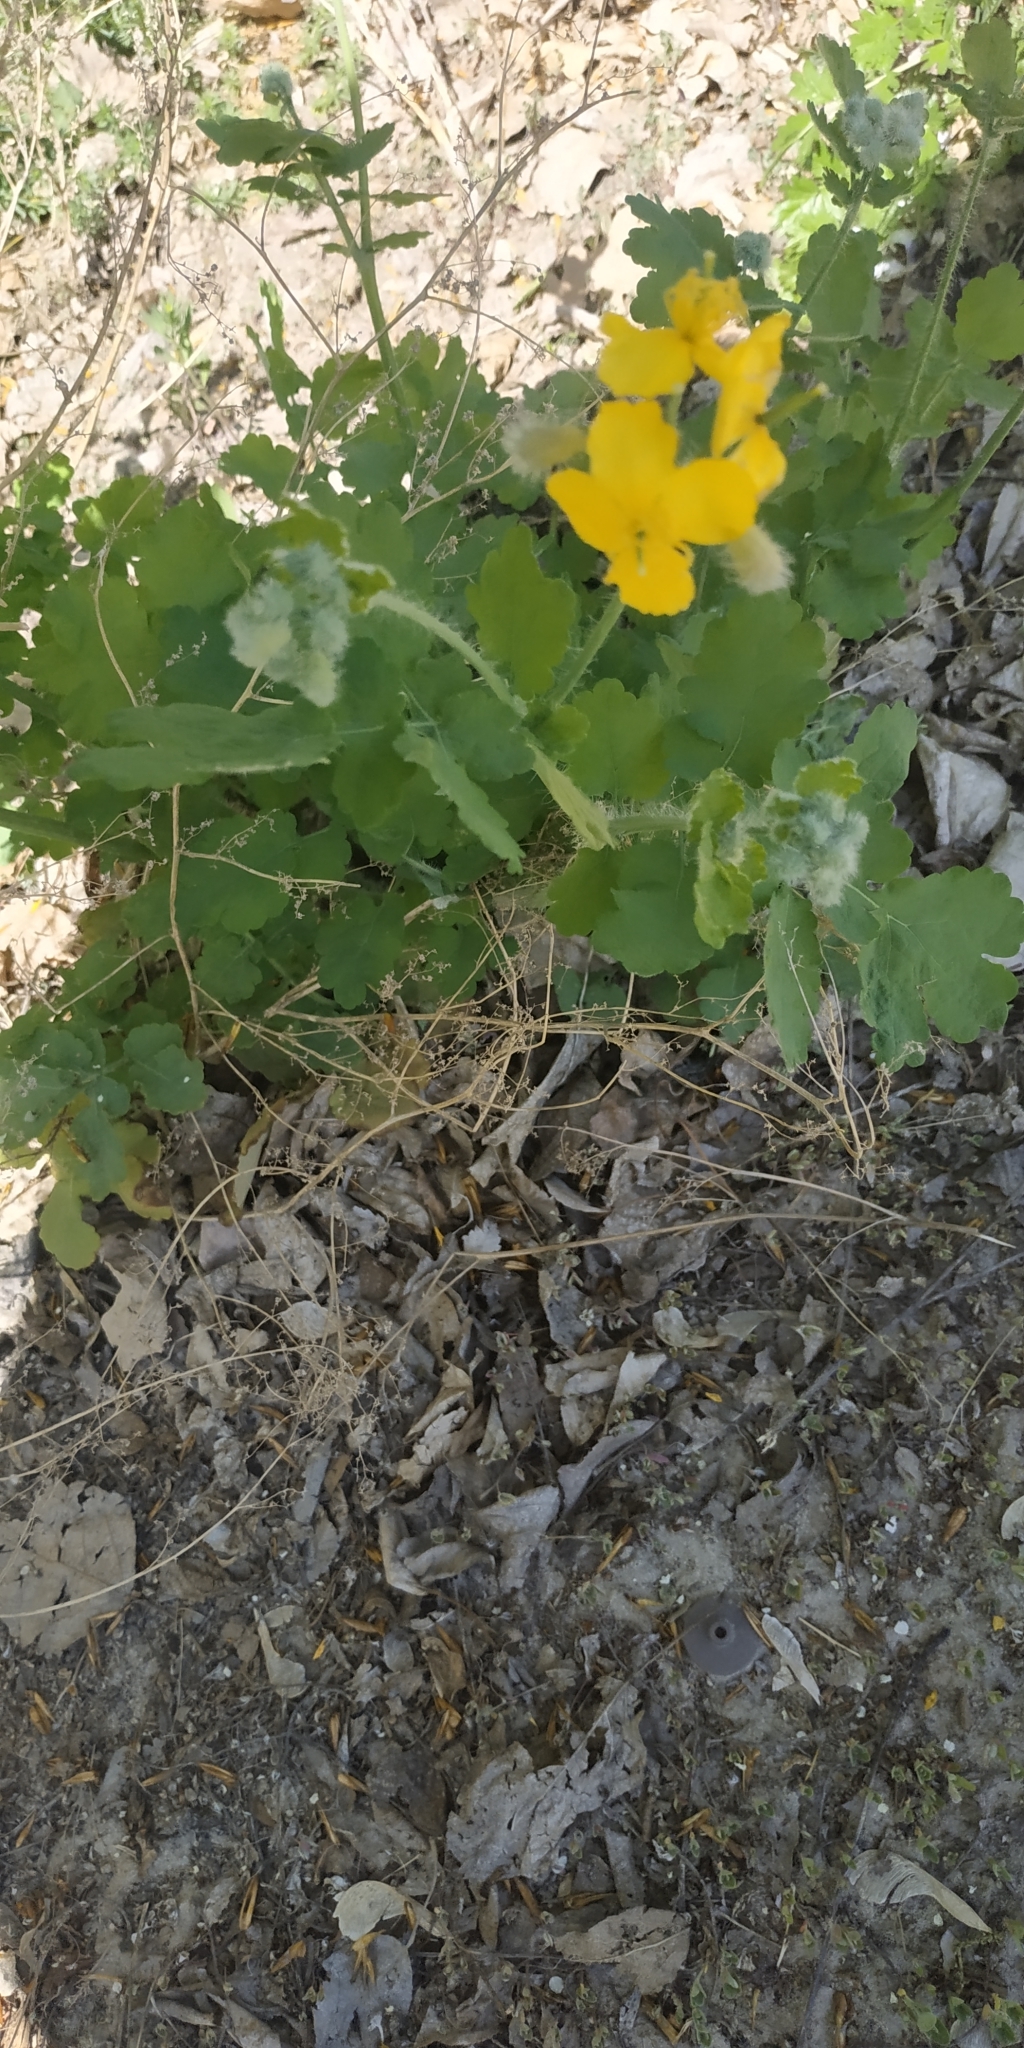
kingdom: Plantae
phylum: Tracheophyta
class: Magnoliopsida
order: Ranunculales
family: Papaveraceae
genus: Chelidonium
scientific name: Chelidonium majus
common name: Greater celandine
